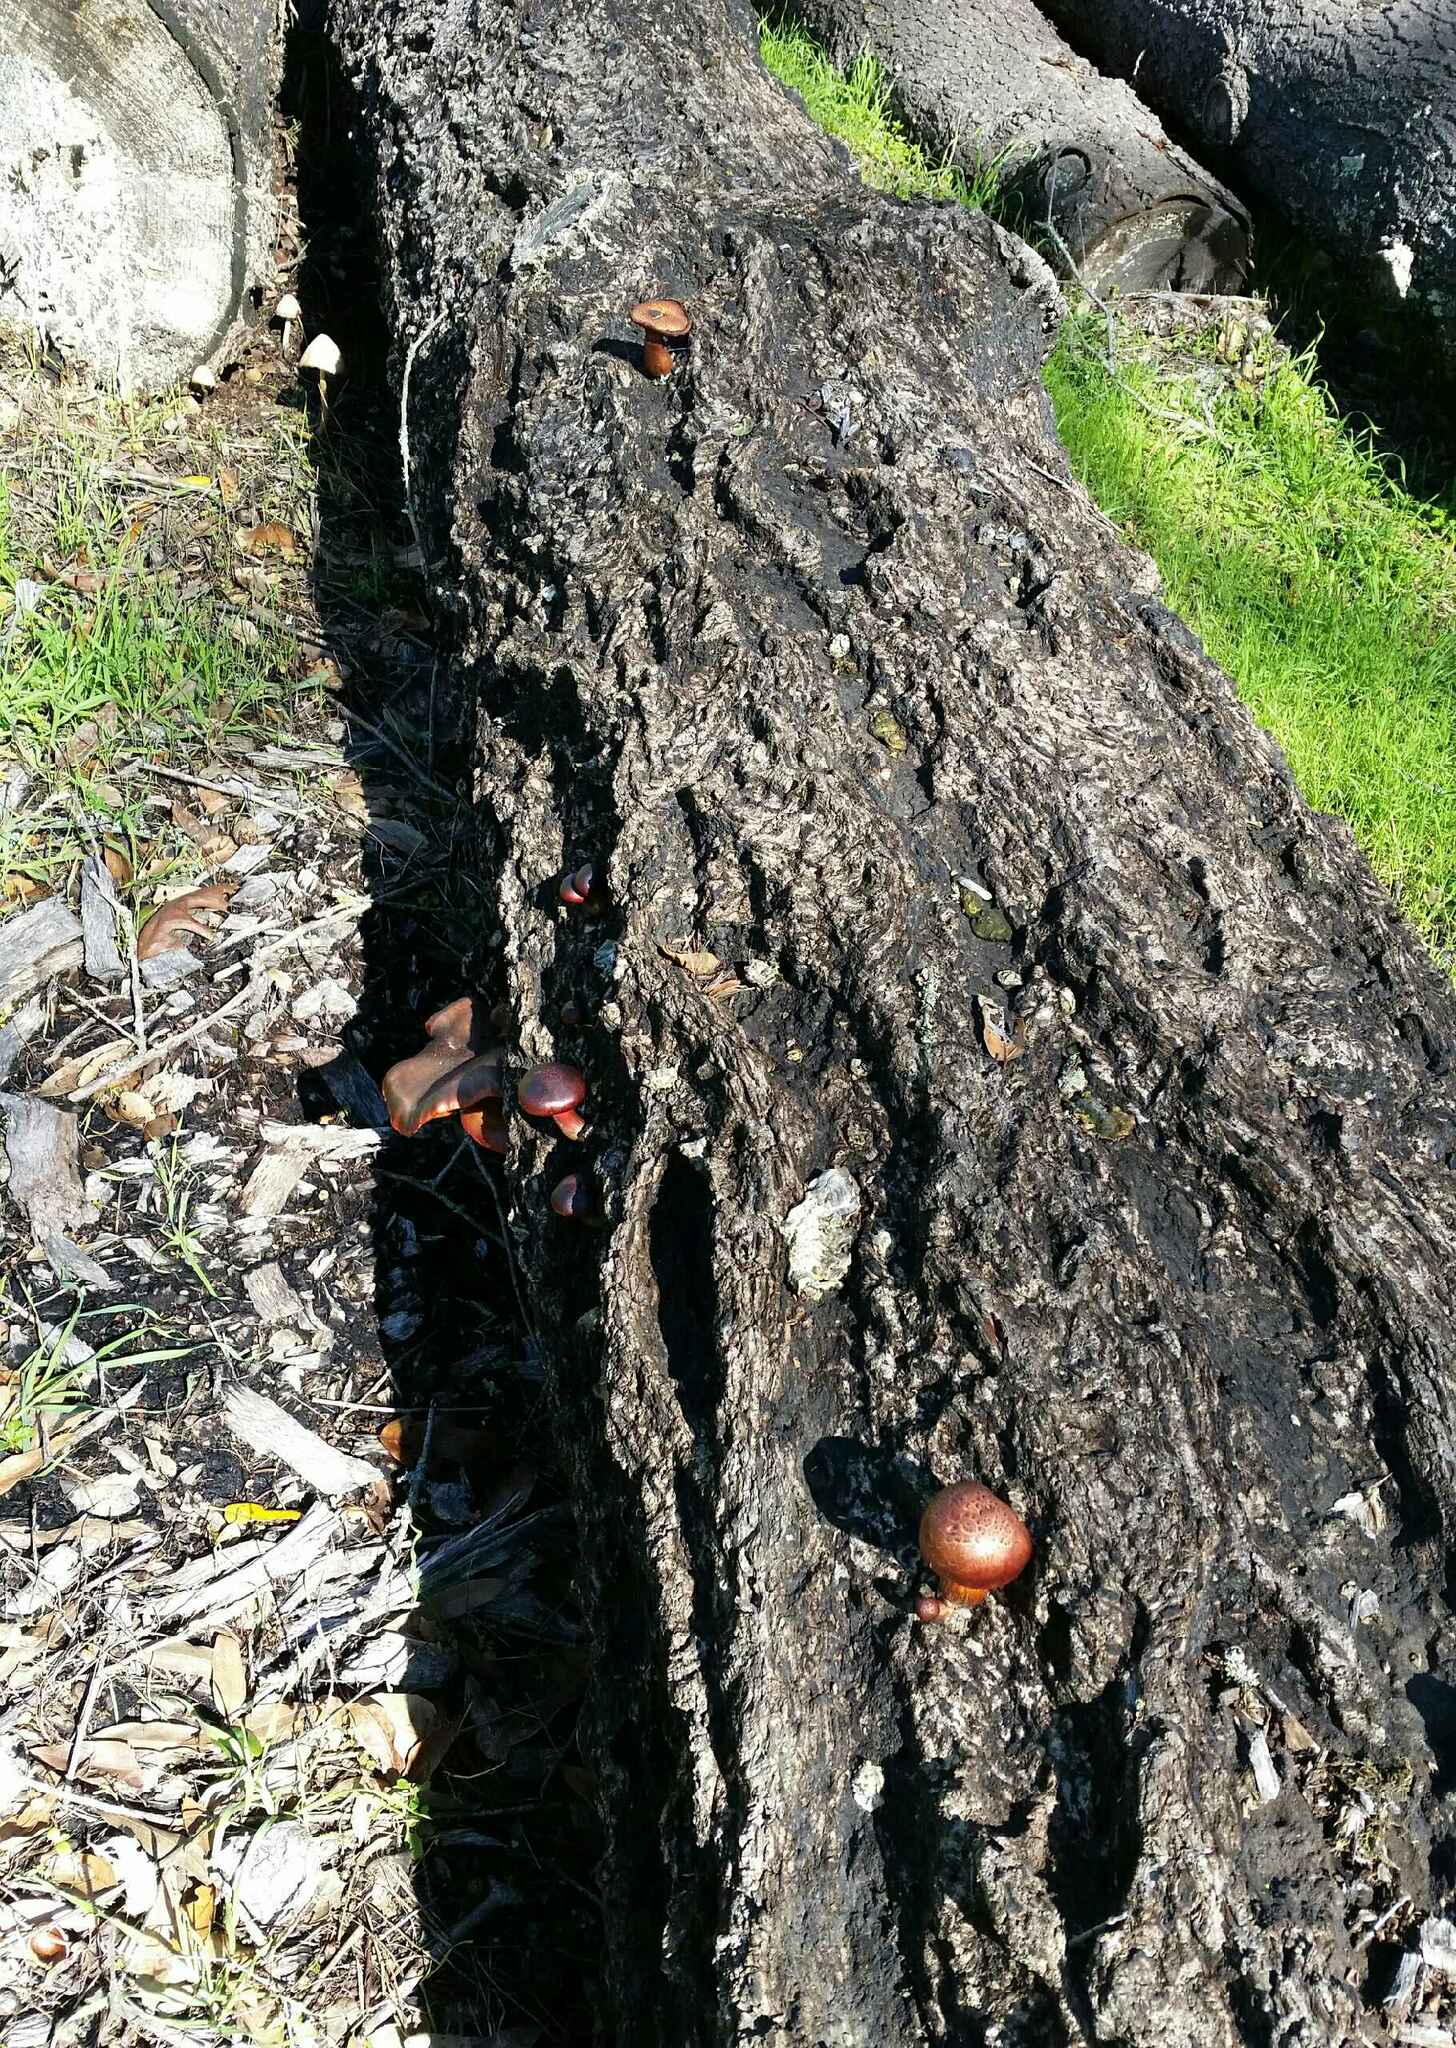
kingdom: Fungi
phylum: Basidiomycota
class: Agaricomycetes
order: Agaricales
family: Hymenogastraceae
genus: Gymnopilus
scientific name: Gymnopilus luteofolius
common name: Yellow-gilled gymnopilus
